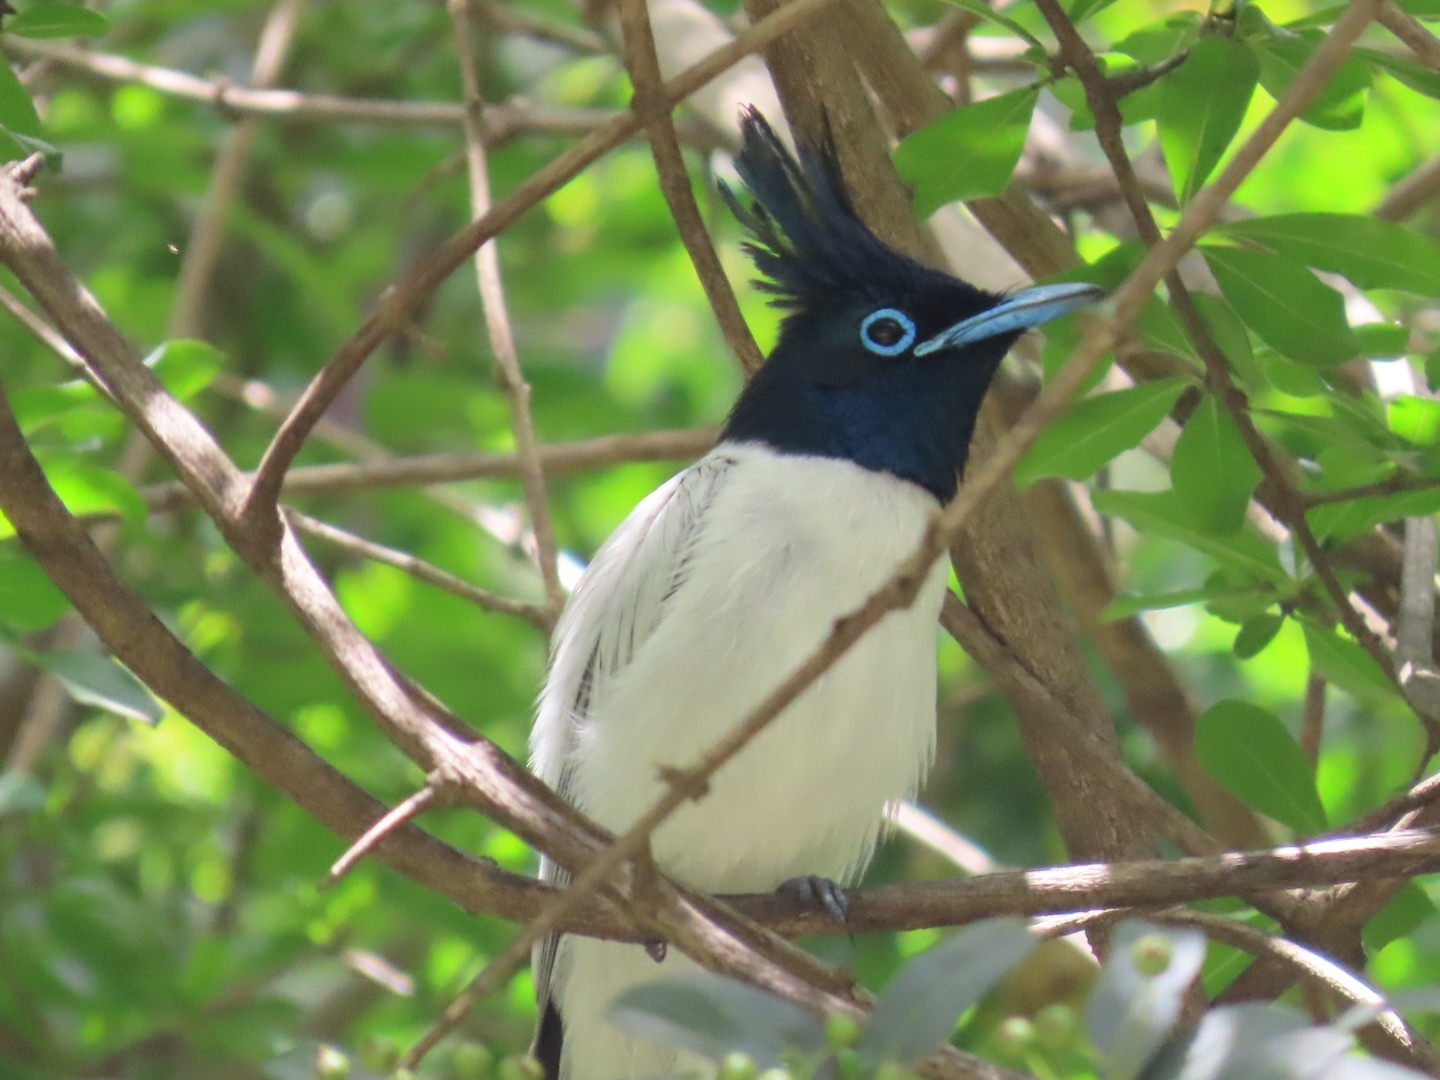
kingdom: Animalia
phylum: Chordata
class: Aves
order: Passeriformes
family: Monarchidae
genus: Terpsiphone
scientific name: Terpsiphone paradisi
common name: Indian paradise flycatcher
